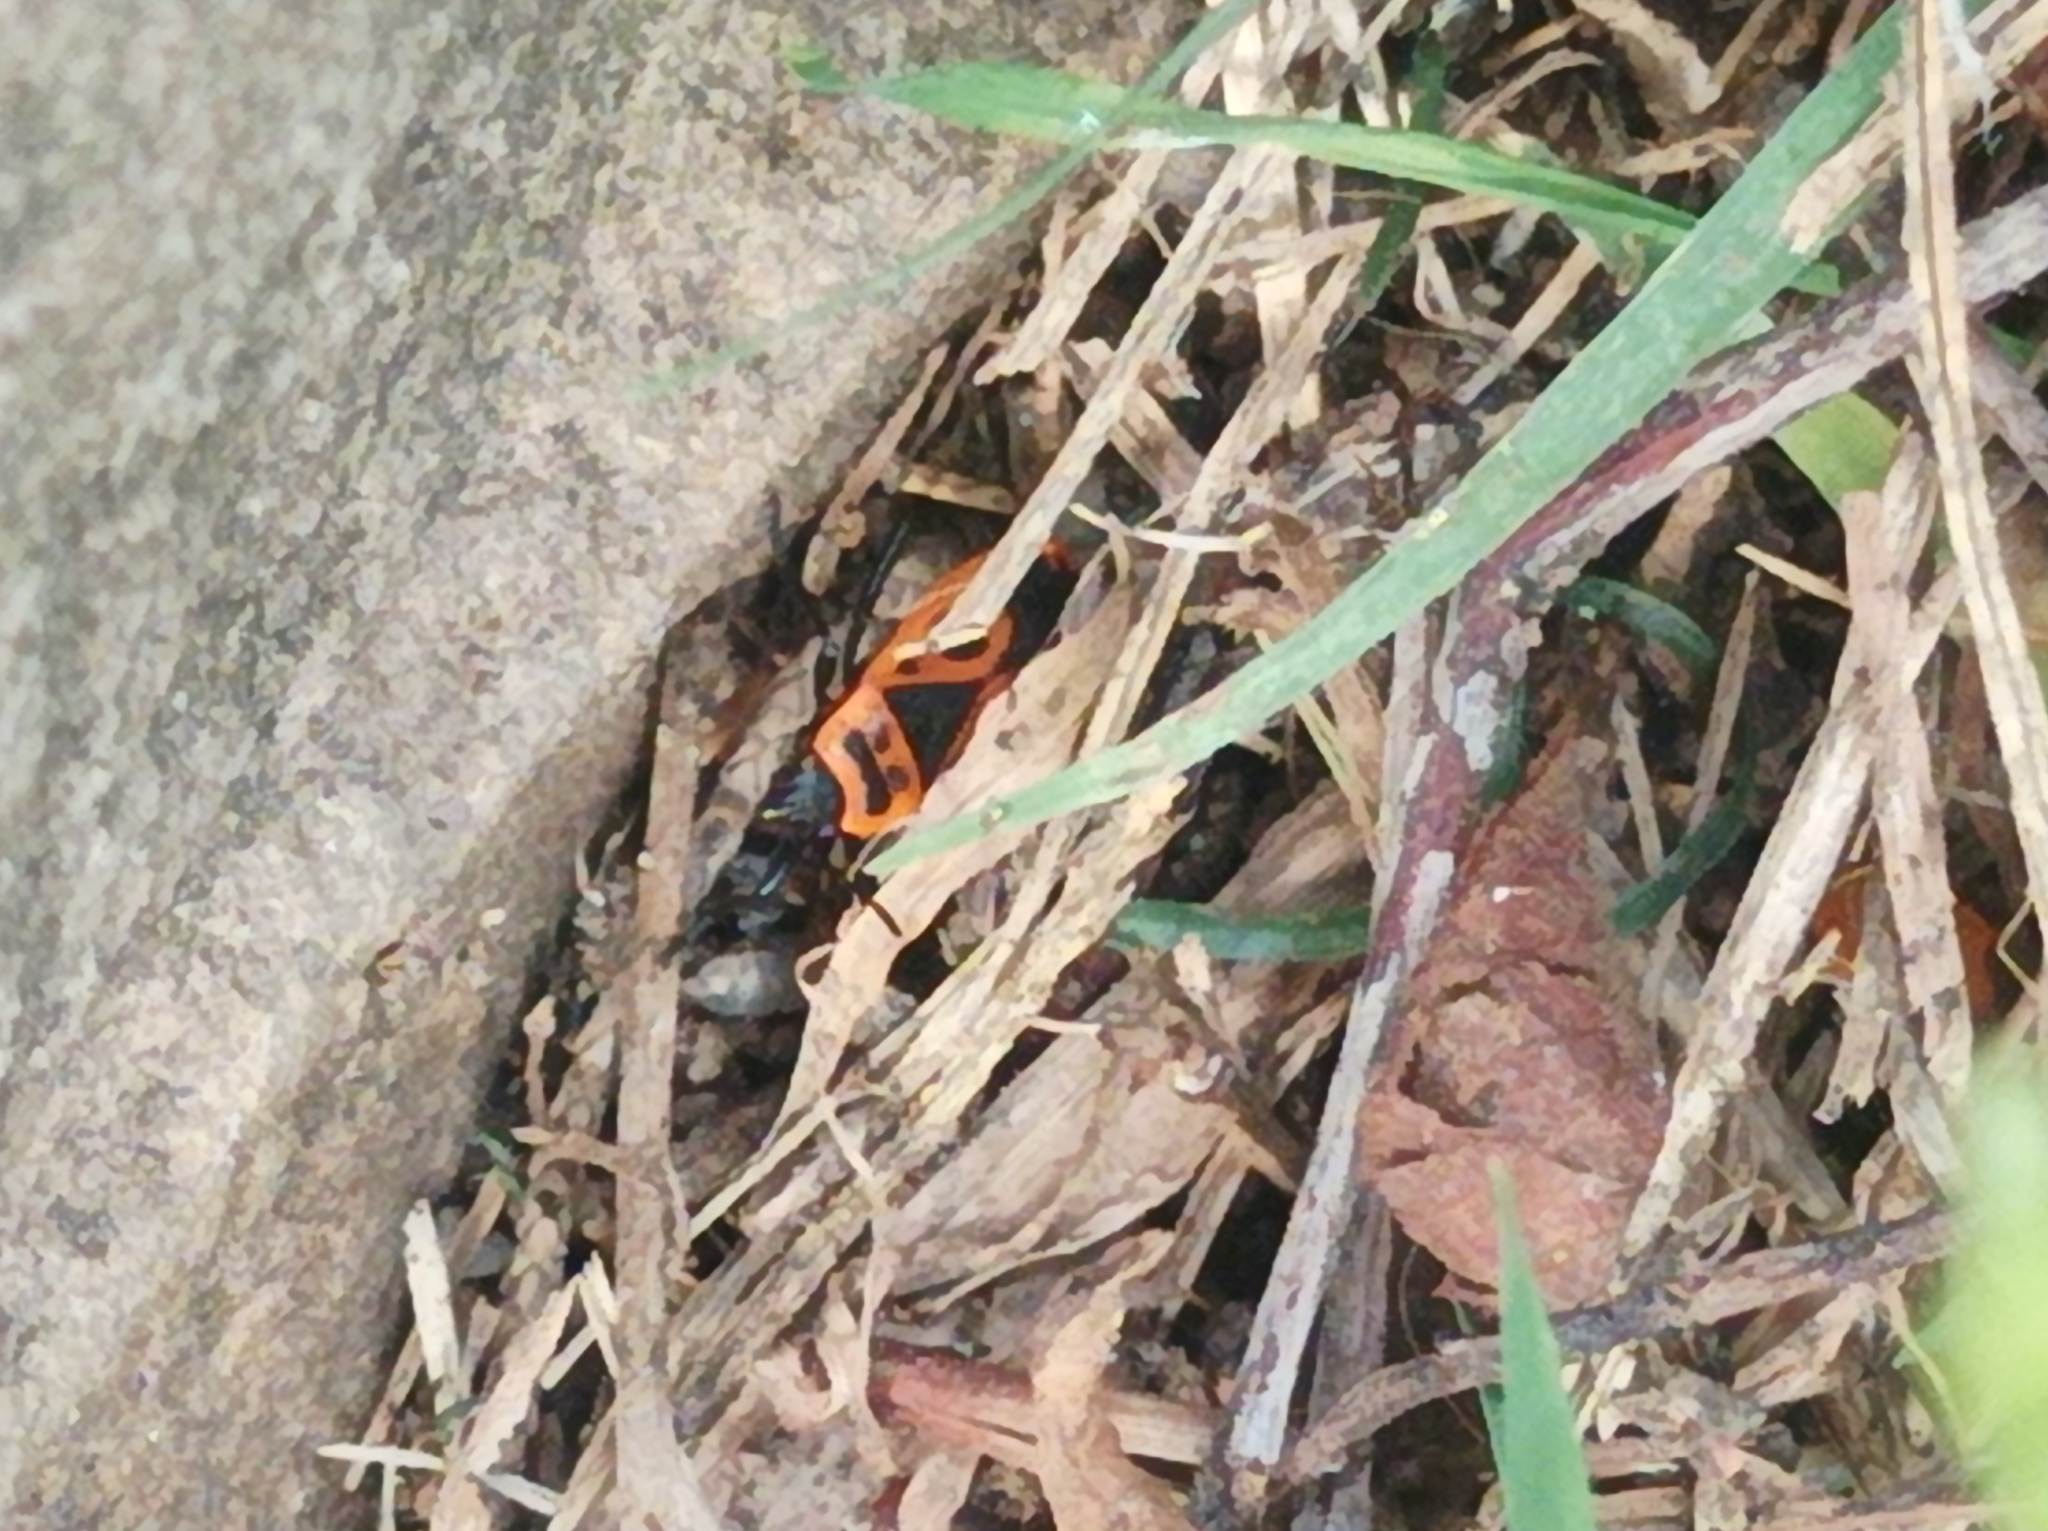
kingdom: Animalia
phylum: Arthropoda
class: Insecta
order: Hemiptera
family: Pyrrhocoridae
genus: Pyrrhocoris
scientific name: Pyrrhocoris apterus
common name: Firebug
